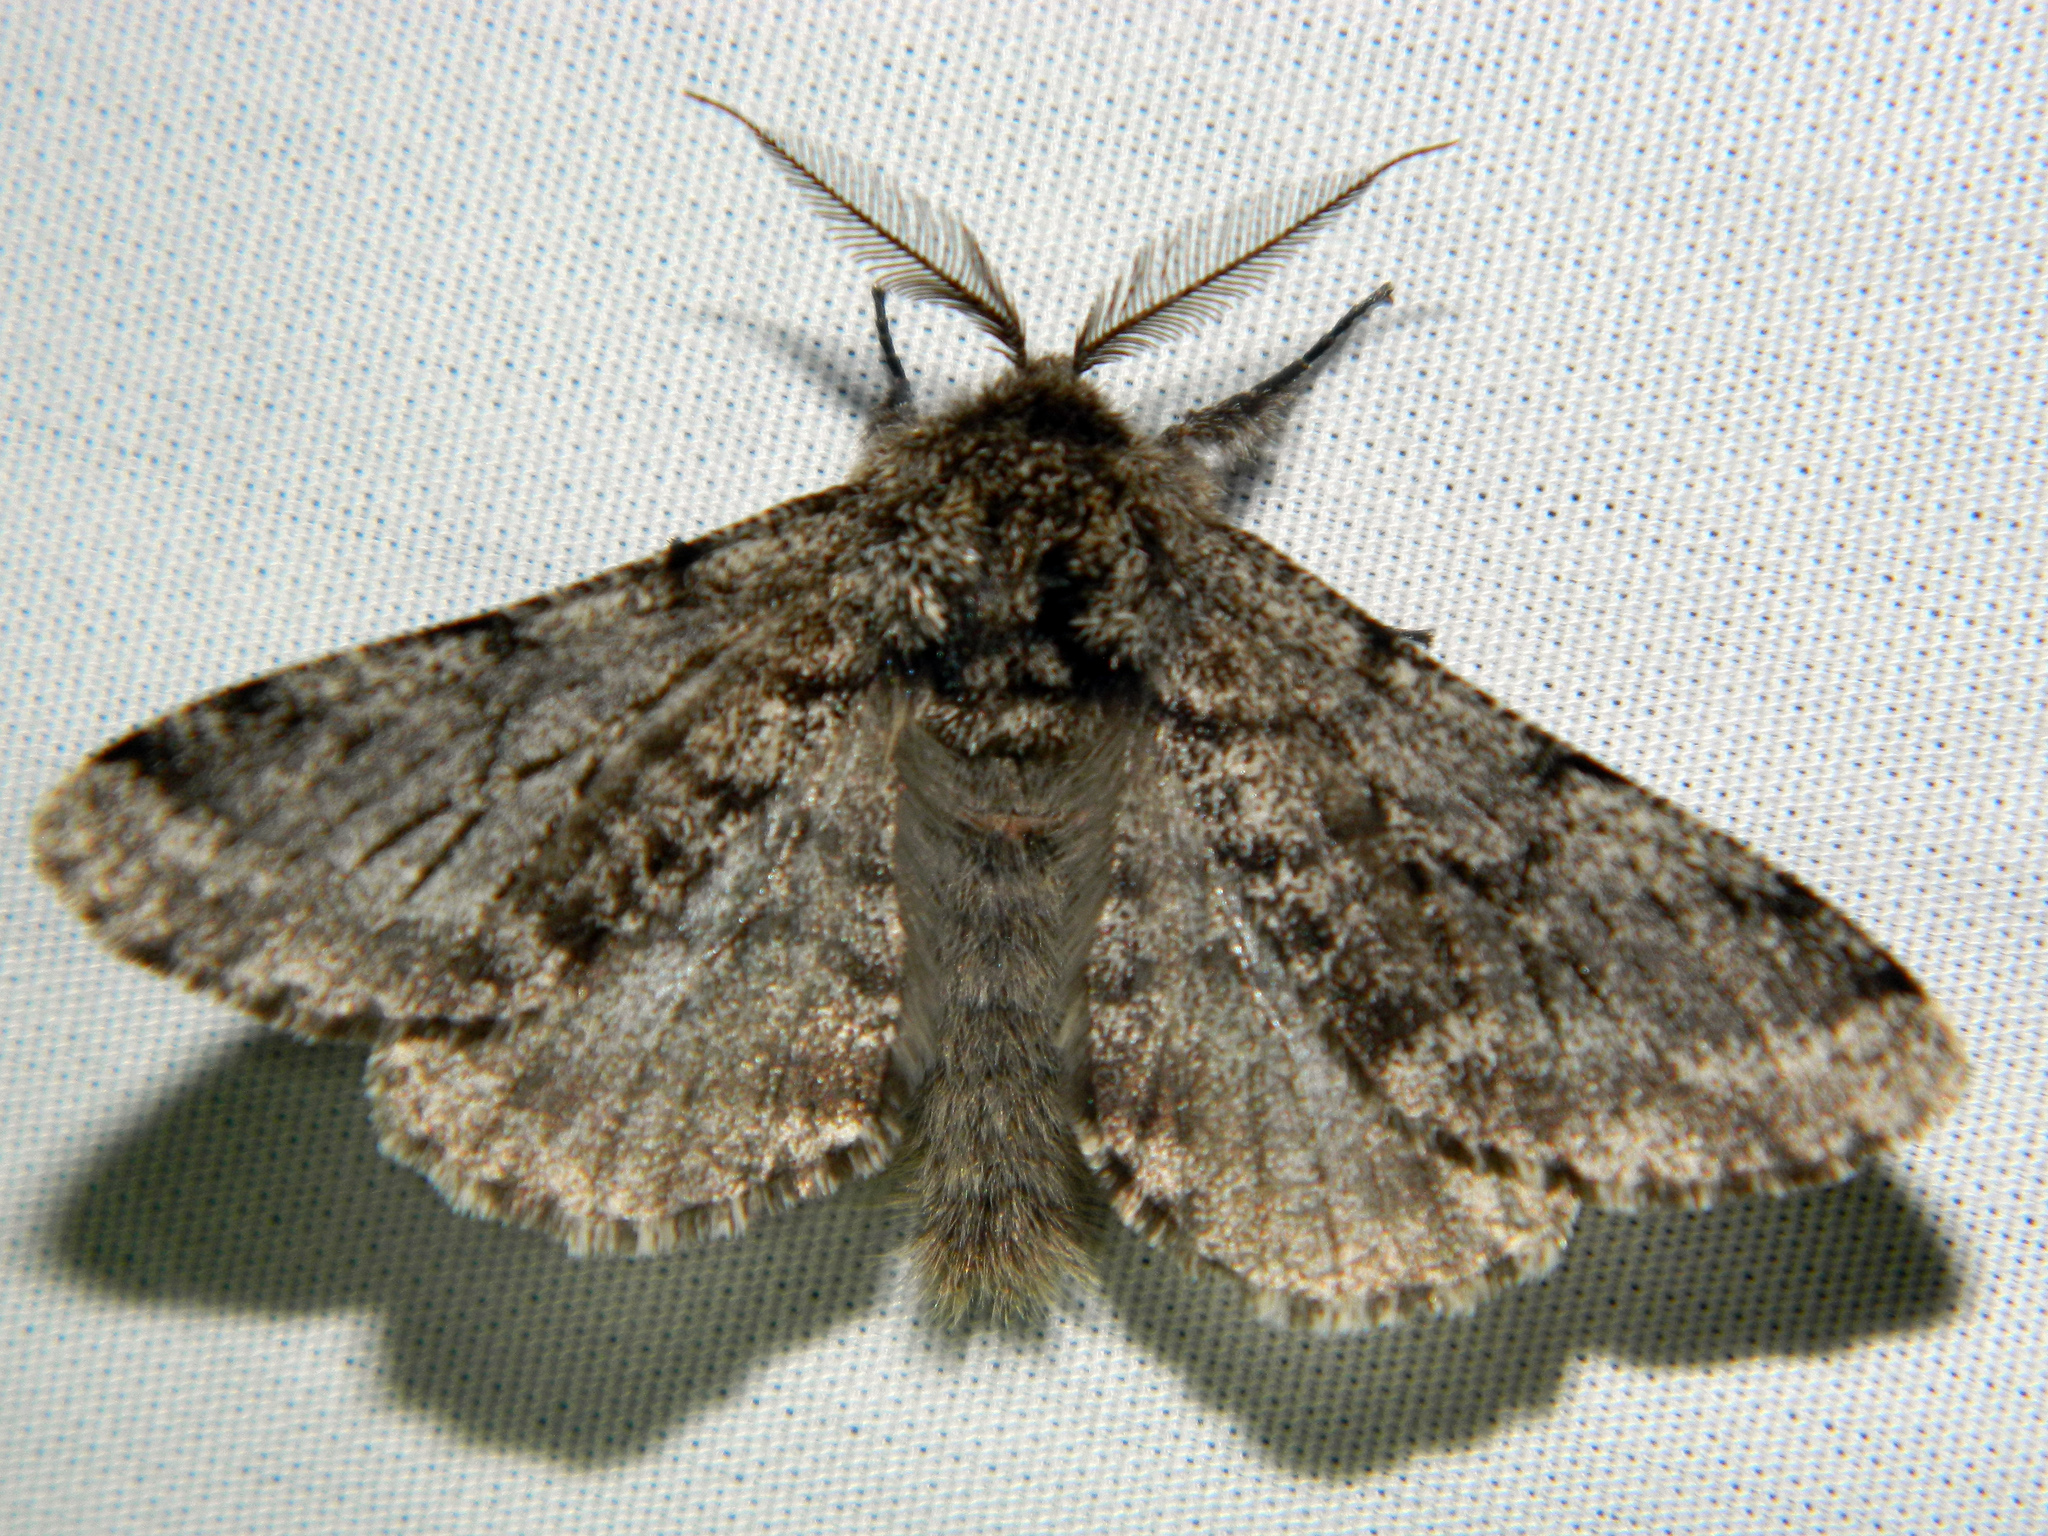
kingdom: Animalia
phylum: Arthropoda
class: Insecta
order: Lepidoptera
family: Geometridae
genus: Lycia
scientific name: Lycia ursaria
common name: Stout spanworm
